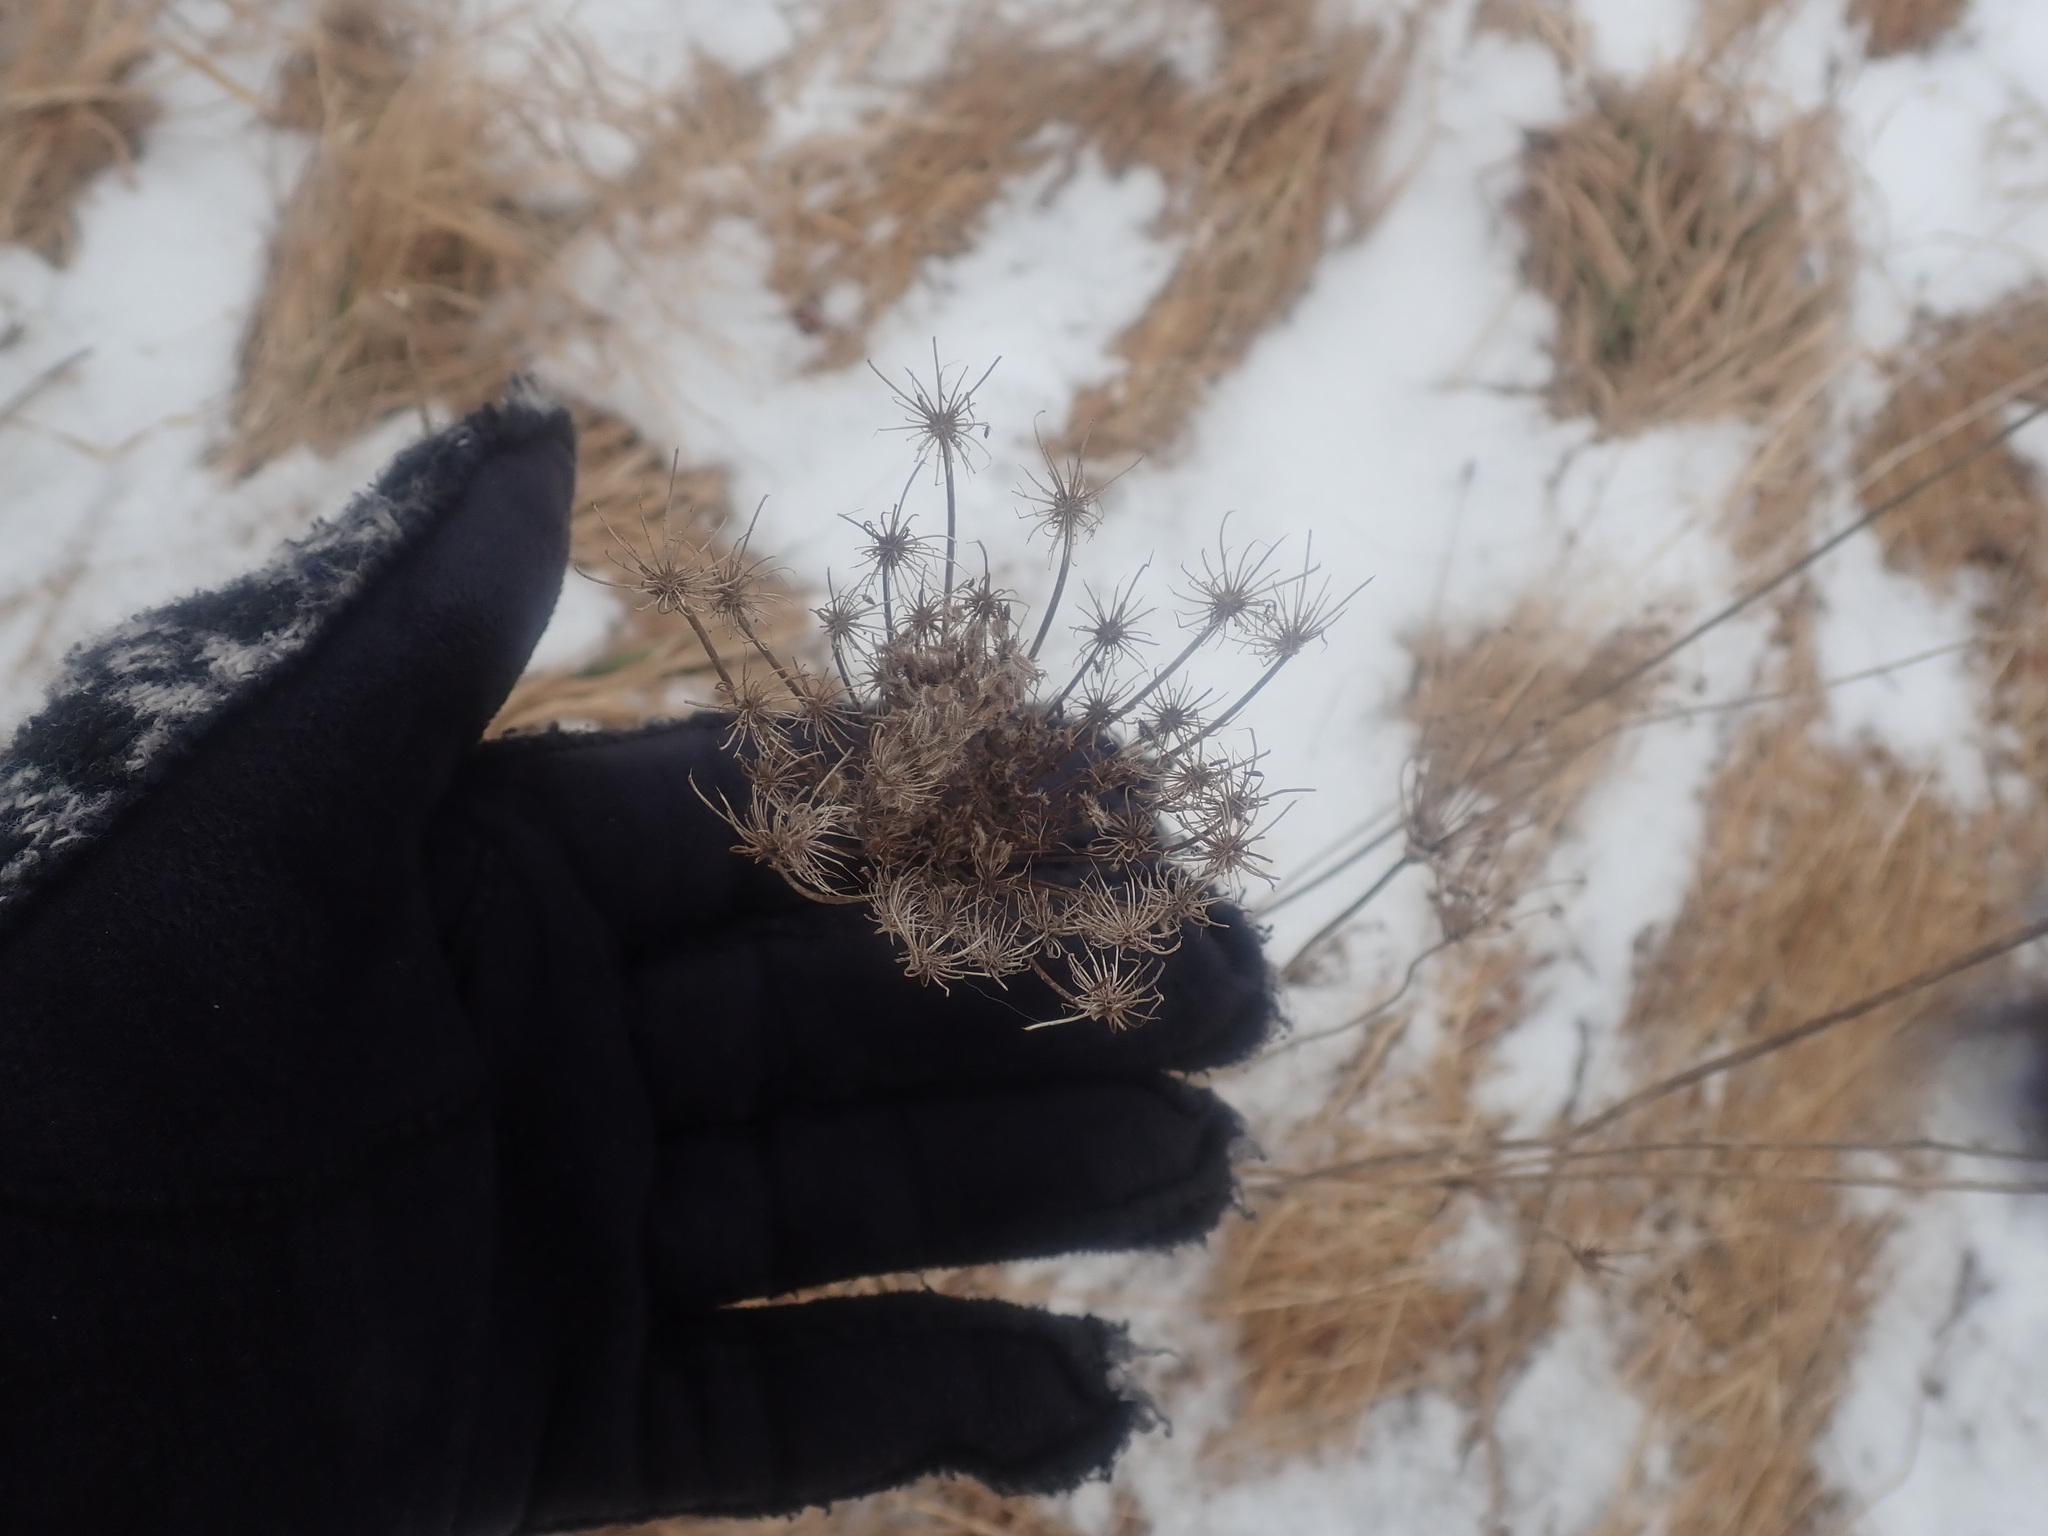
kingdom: Plantae
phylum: Tracheophyta
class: Magnoliopsida
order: Apiales
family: Apiaceae
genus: Daucus
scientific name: Daucus carota
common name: Wild carrot
